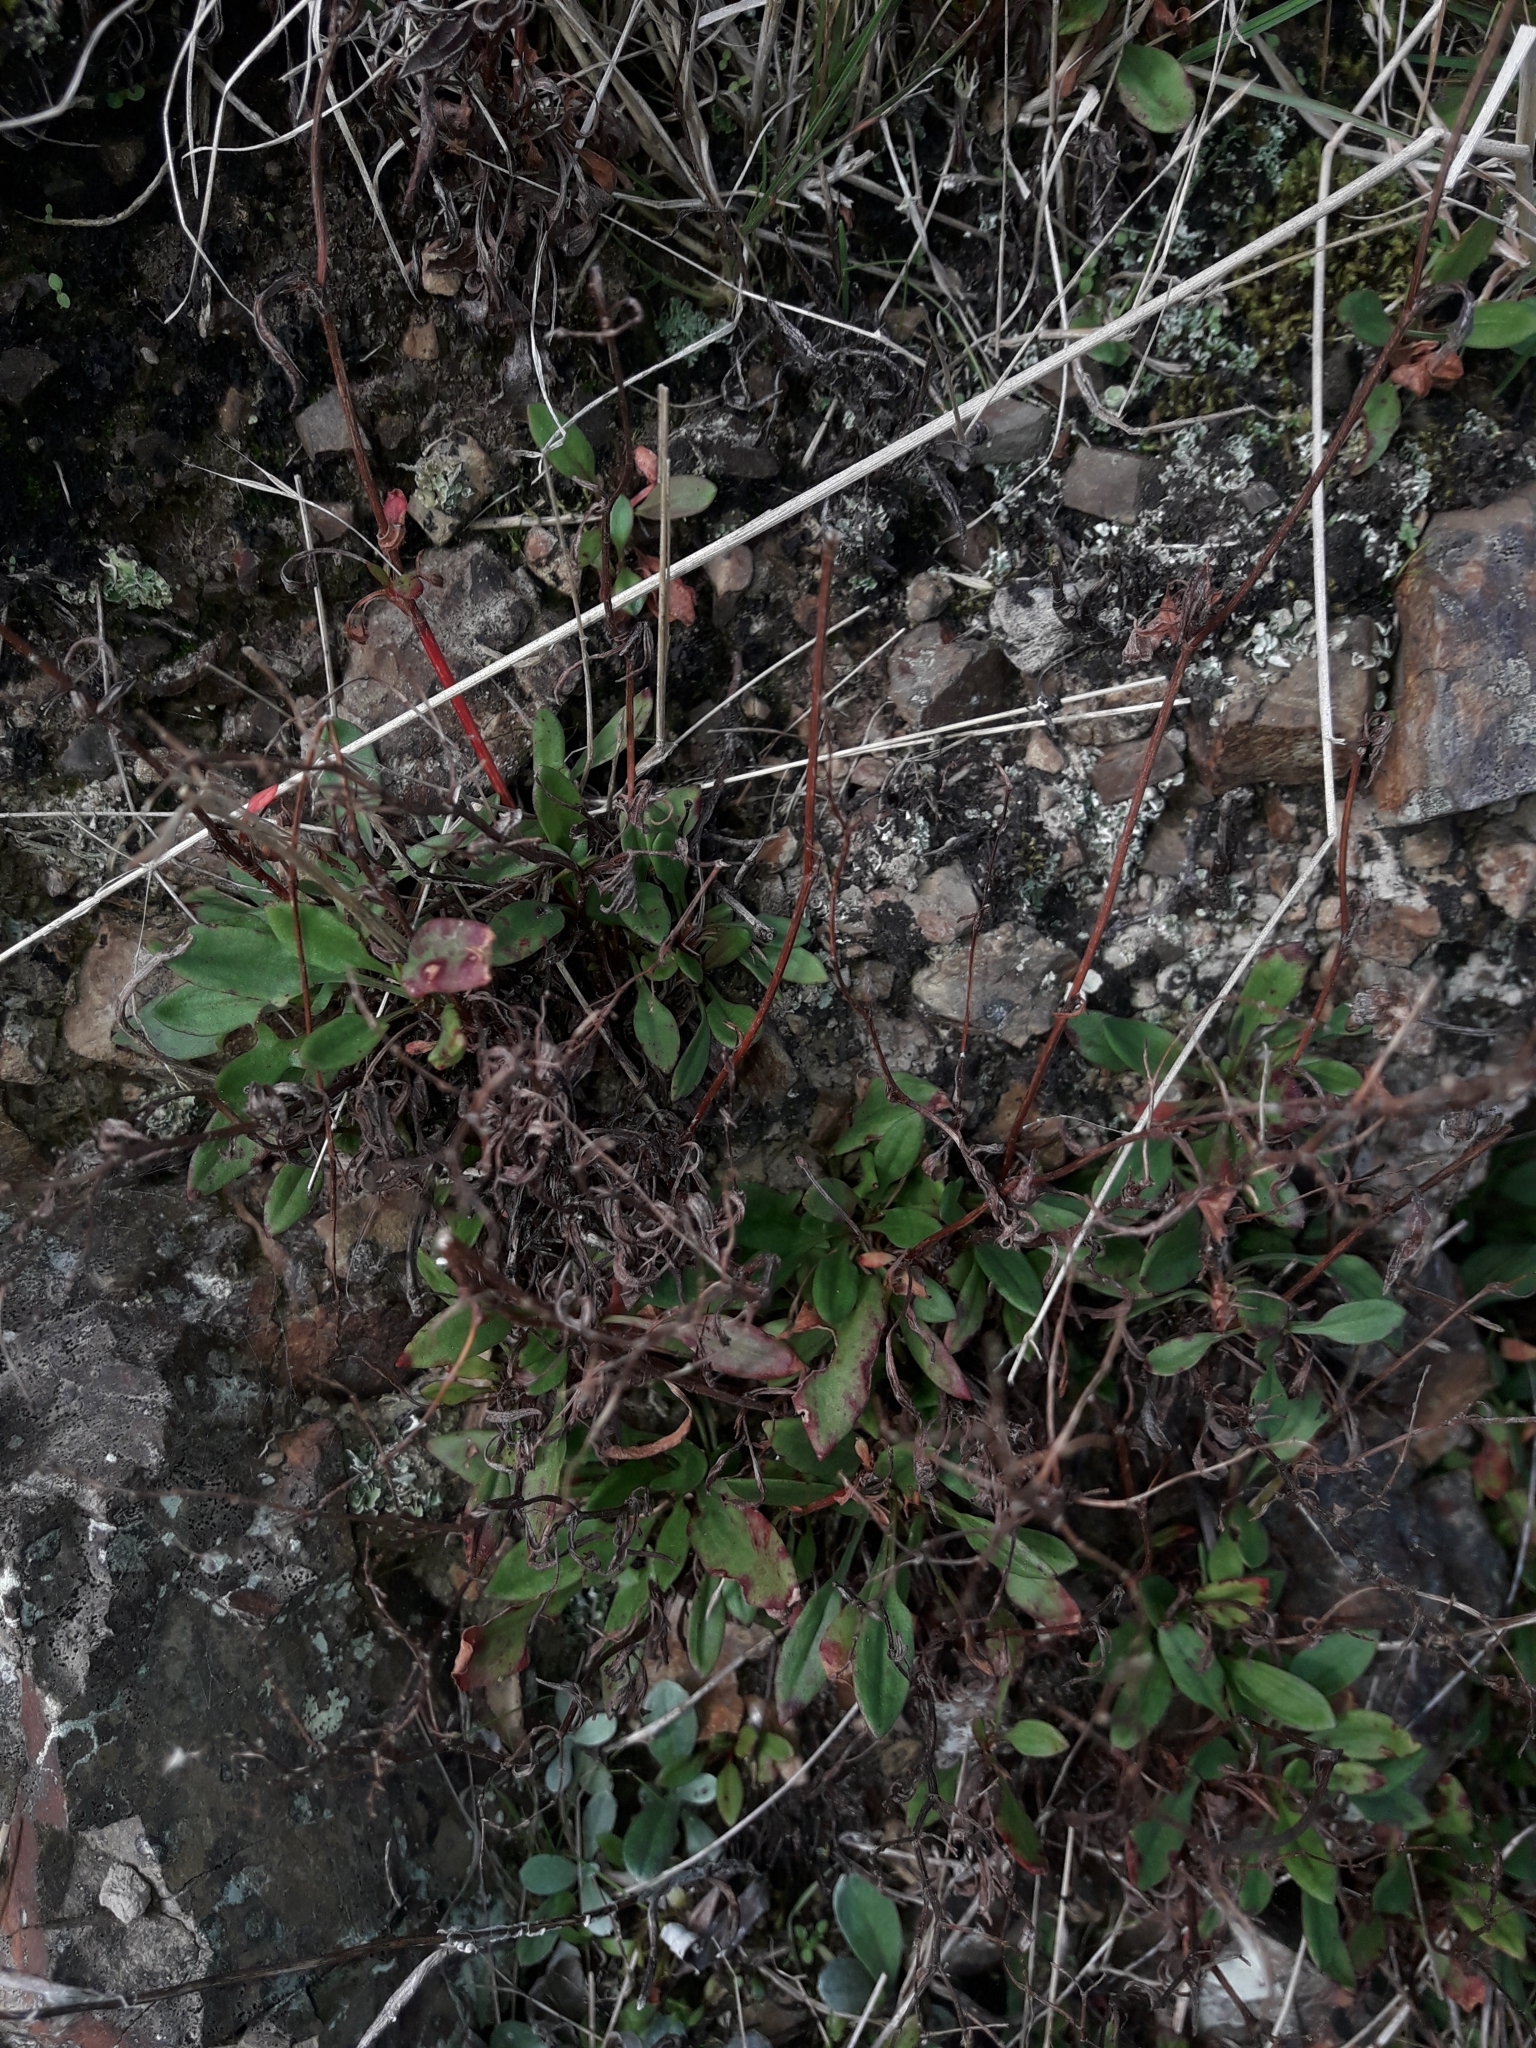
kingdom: Plantae
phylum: Tracheophyta
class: Magnoliopsida
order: Caryophyllales
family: Polygonaceae
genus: Rumex
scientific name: Rumex acetosella
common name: Common sheep sorrel
